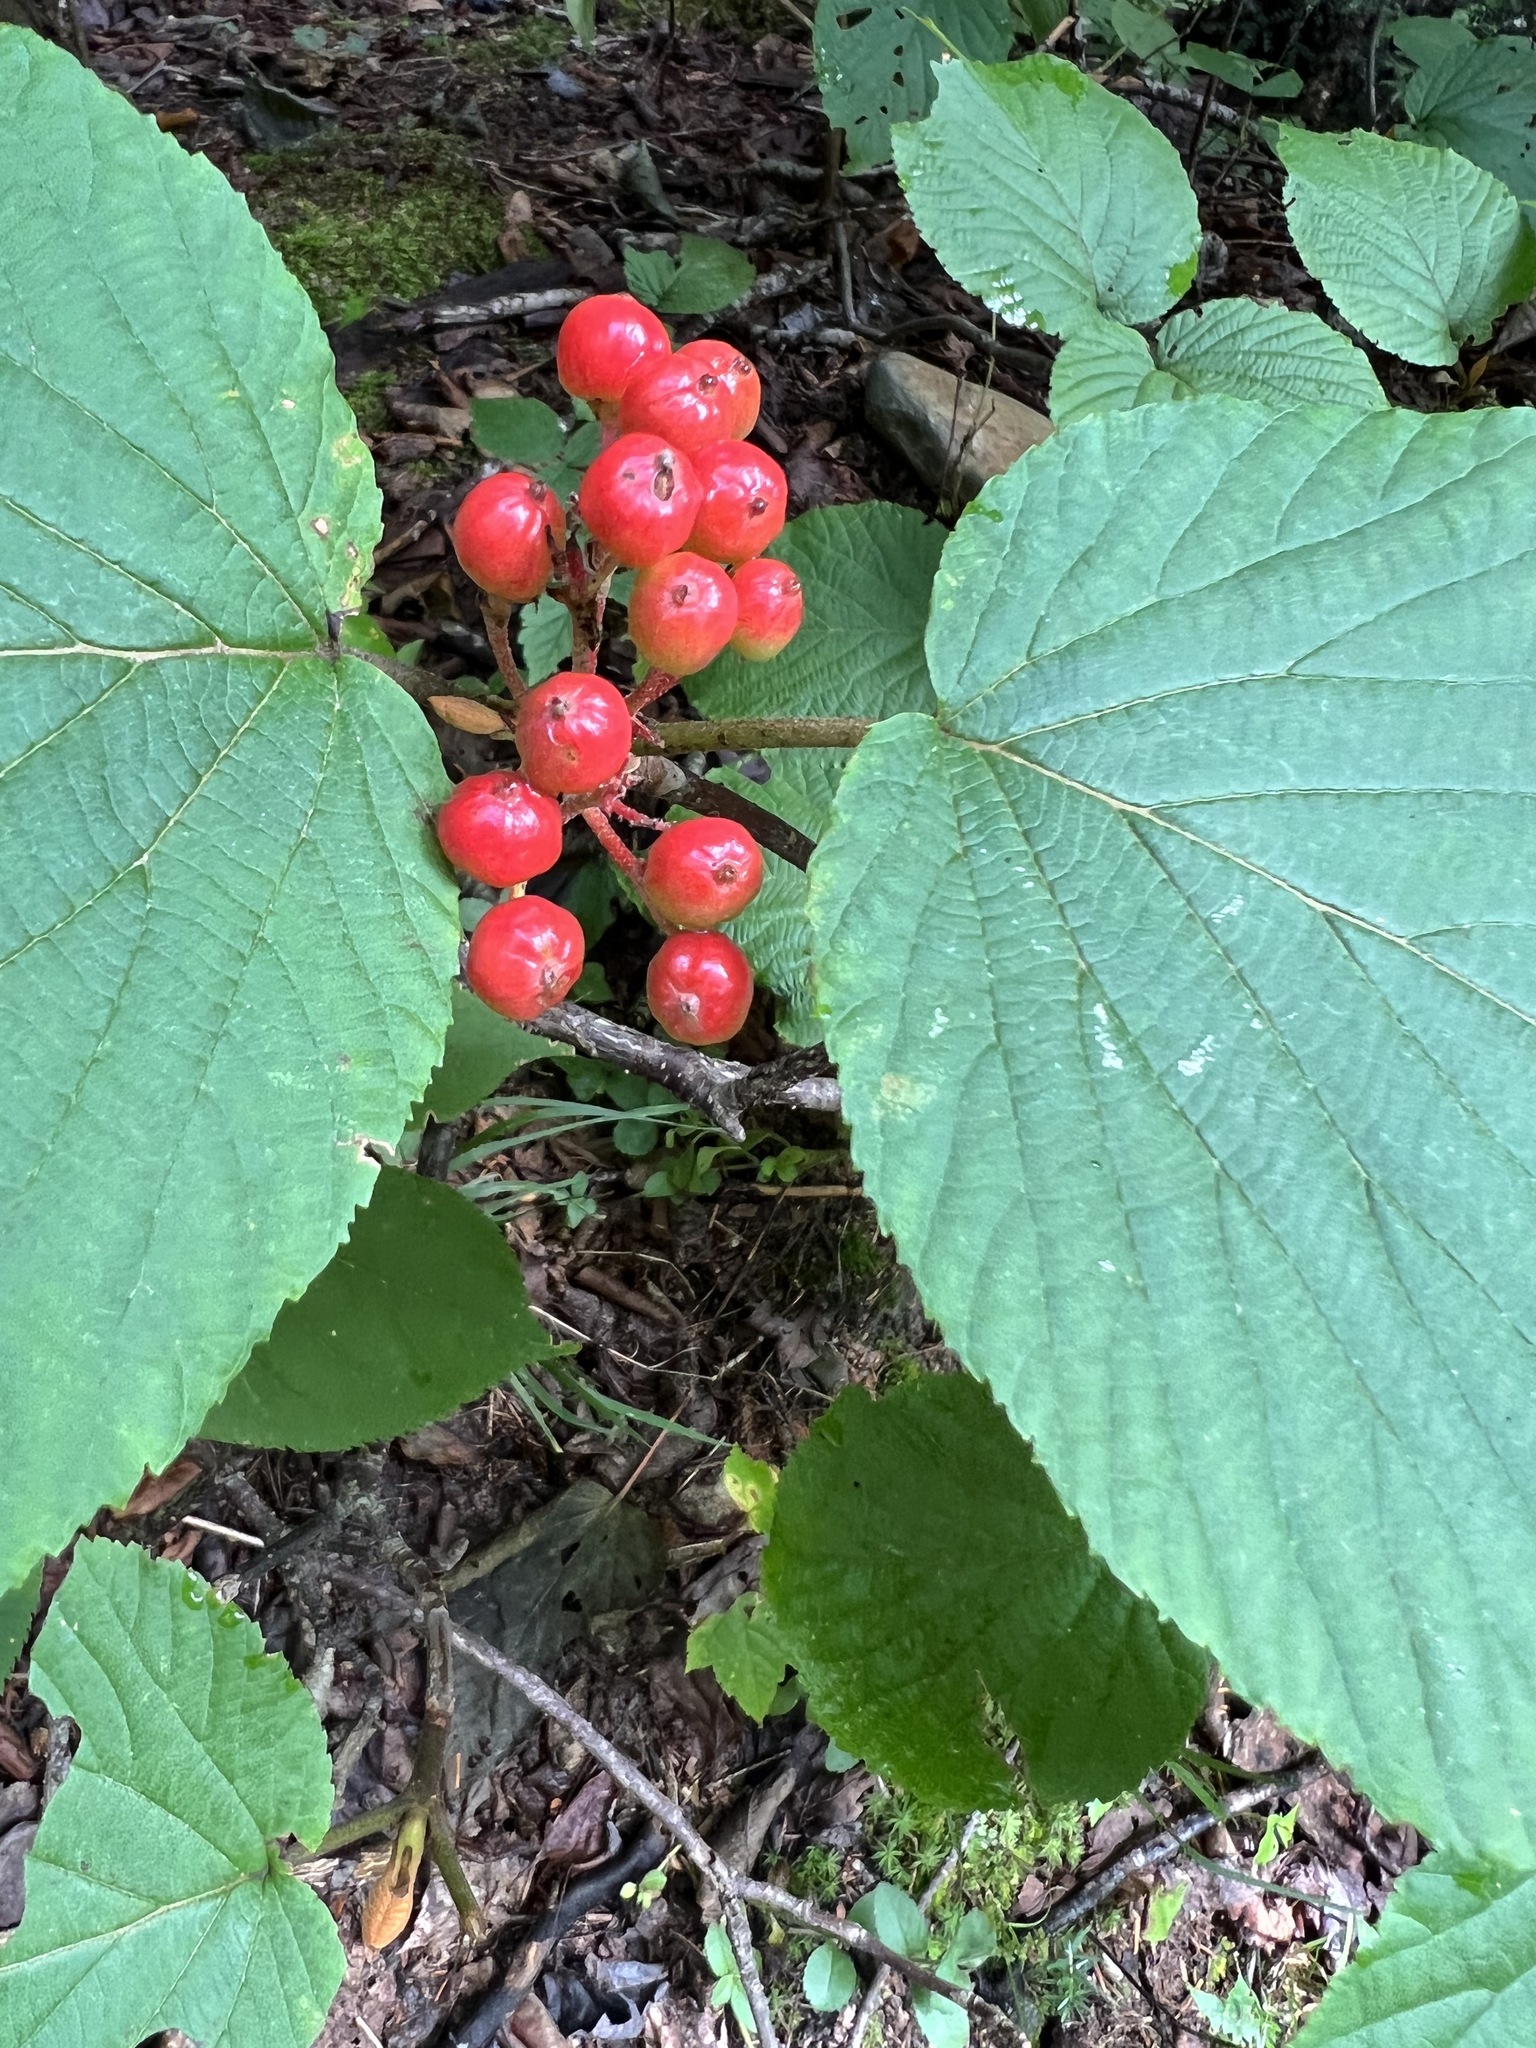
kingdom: Plantae
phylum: Tracheophyta
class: Magnoliopsida
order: Dipsacales
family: Viburnaceae
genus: Viburnum
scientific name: Viburnum lantanoides
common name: Hobblebush
